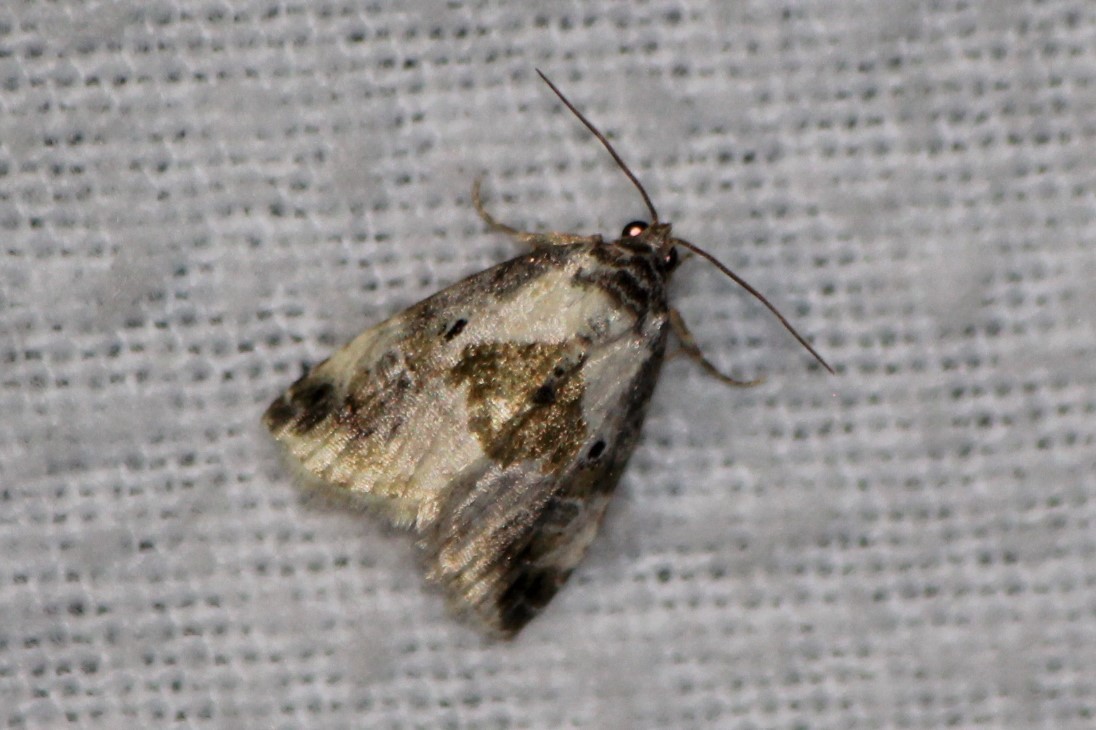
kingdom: Animalia
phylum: Arthropoda
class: Insecta
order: Lepidoptera
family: Noctuidae
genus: Maliattha
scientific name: Maliattha synochitis
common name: Black-dotted glyph
